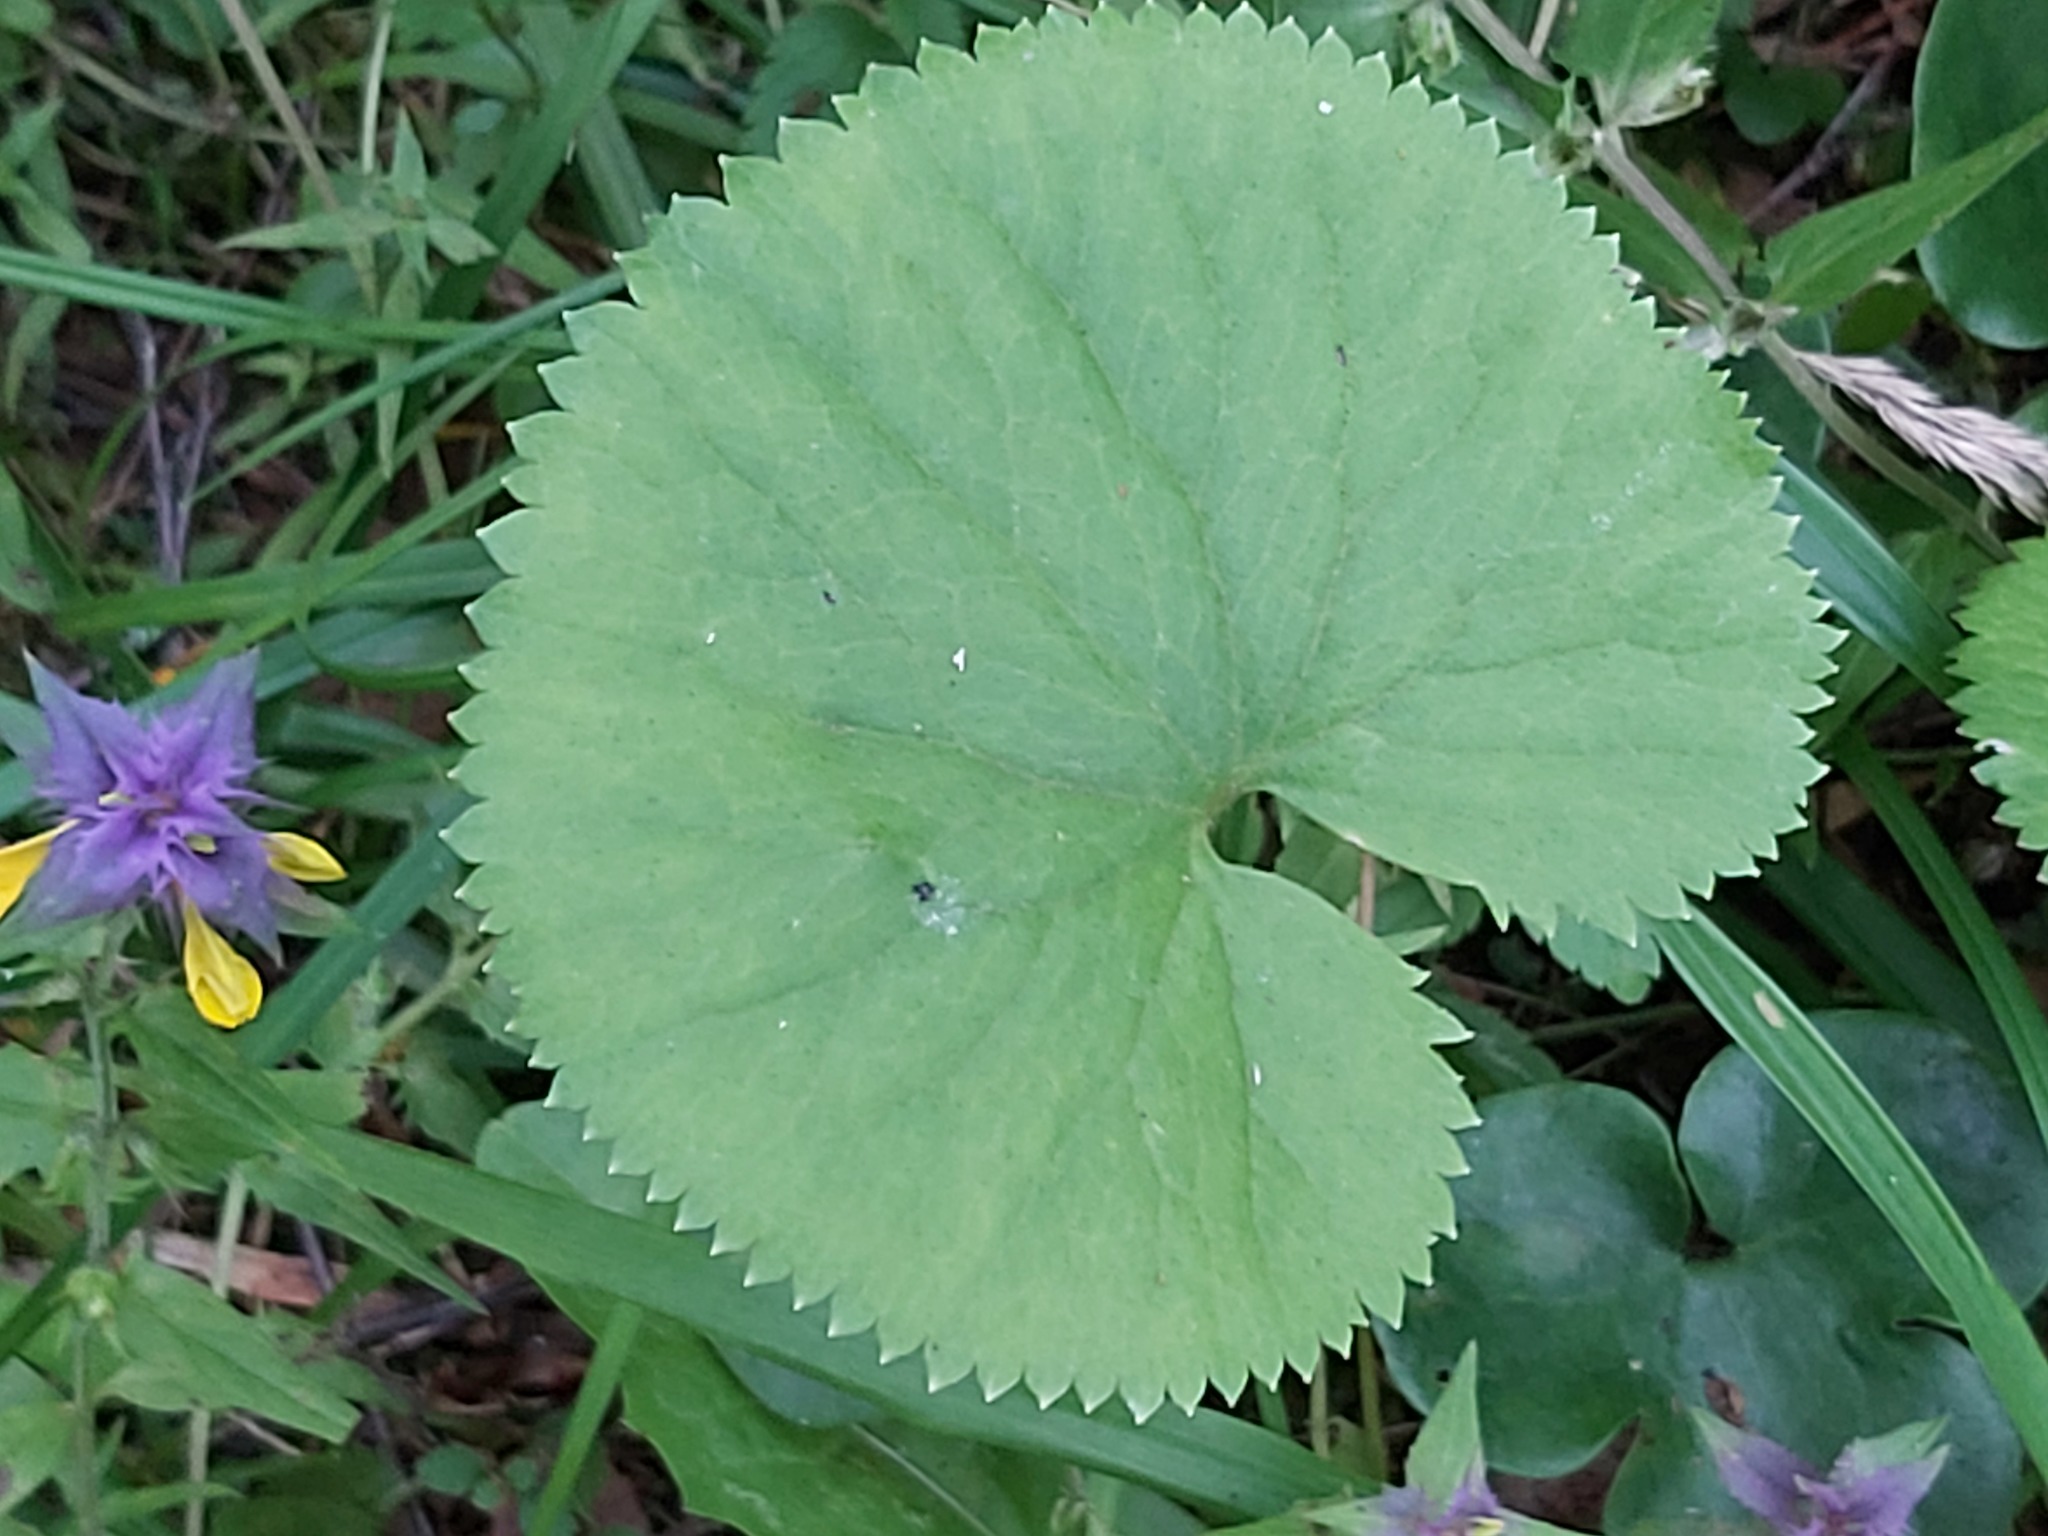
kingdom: Plantae
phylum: Tracheophyta
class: Magnoliopsida
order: Ranunculales
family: Ranunculaceae
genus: Ranunculus
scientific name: Ranunculus cassubicus
